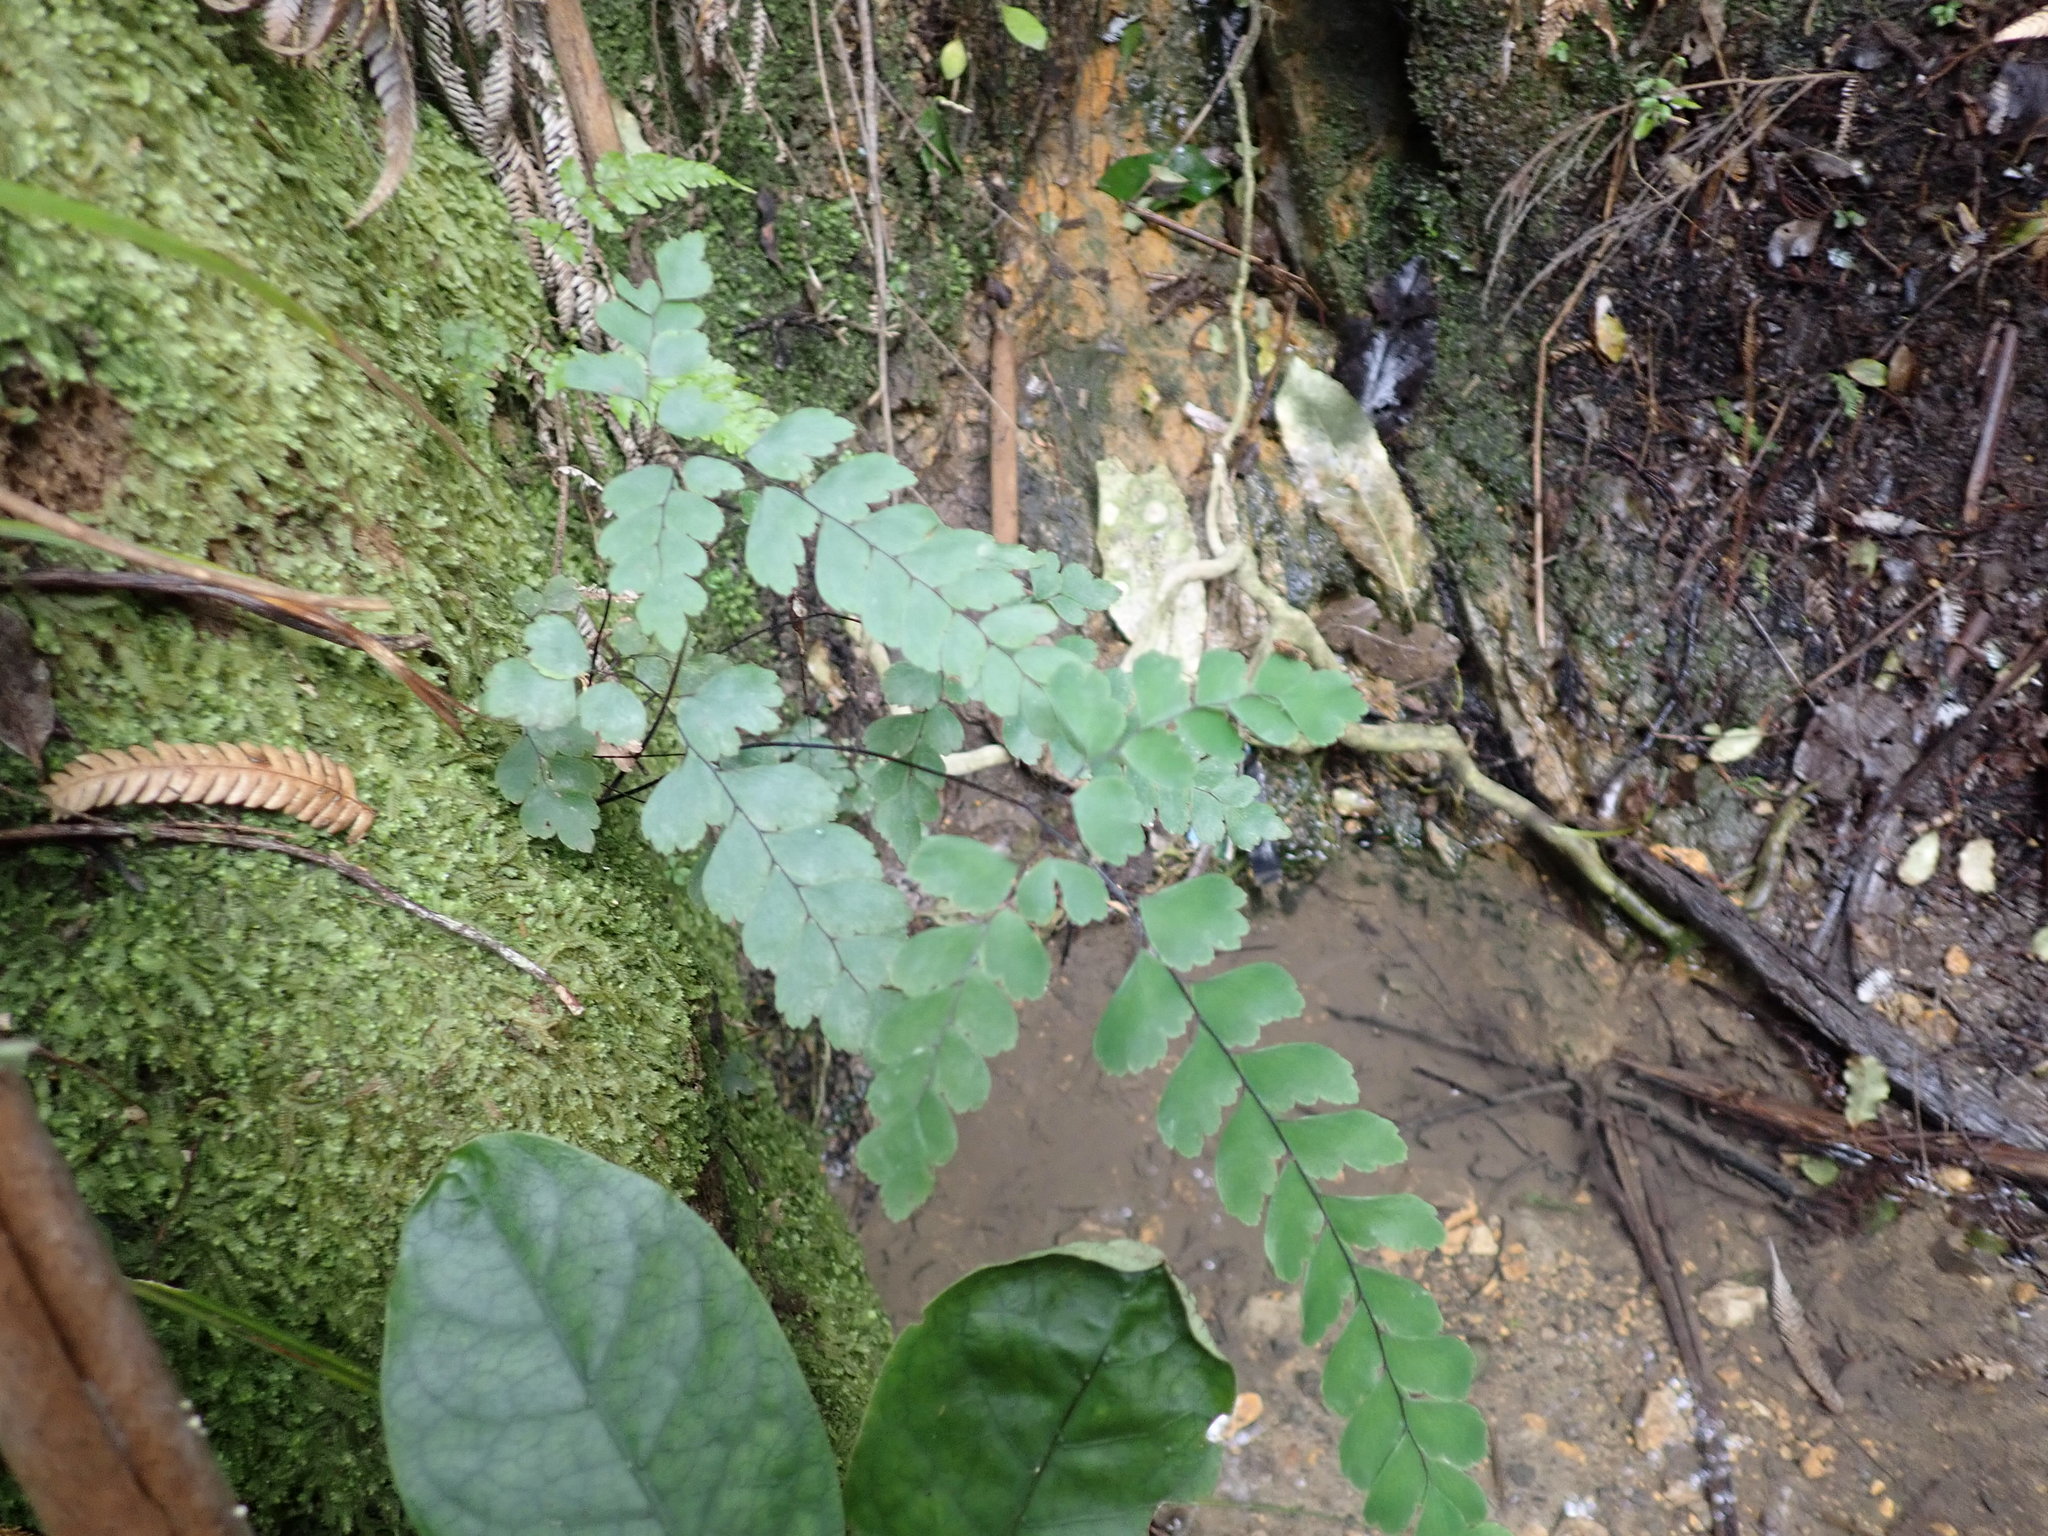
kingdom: Plantae
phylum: Tracheophyta
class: Polypodiopsida
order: Polypodiales
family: Pteridaceae
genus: Adiantum
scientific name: Adiantum cunninghamii
